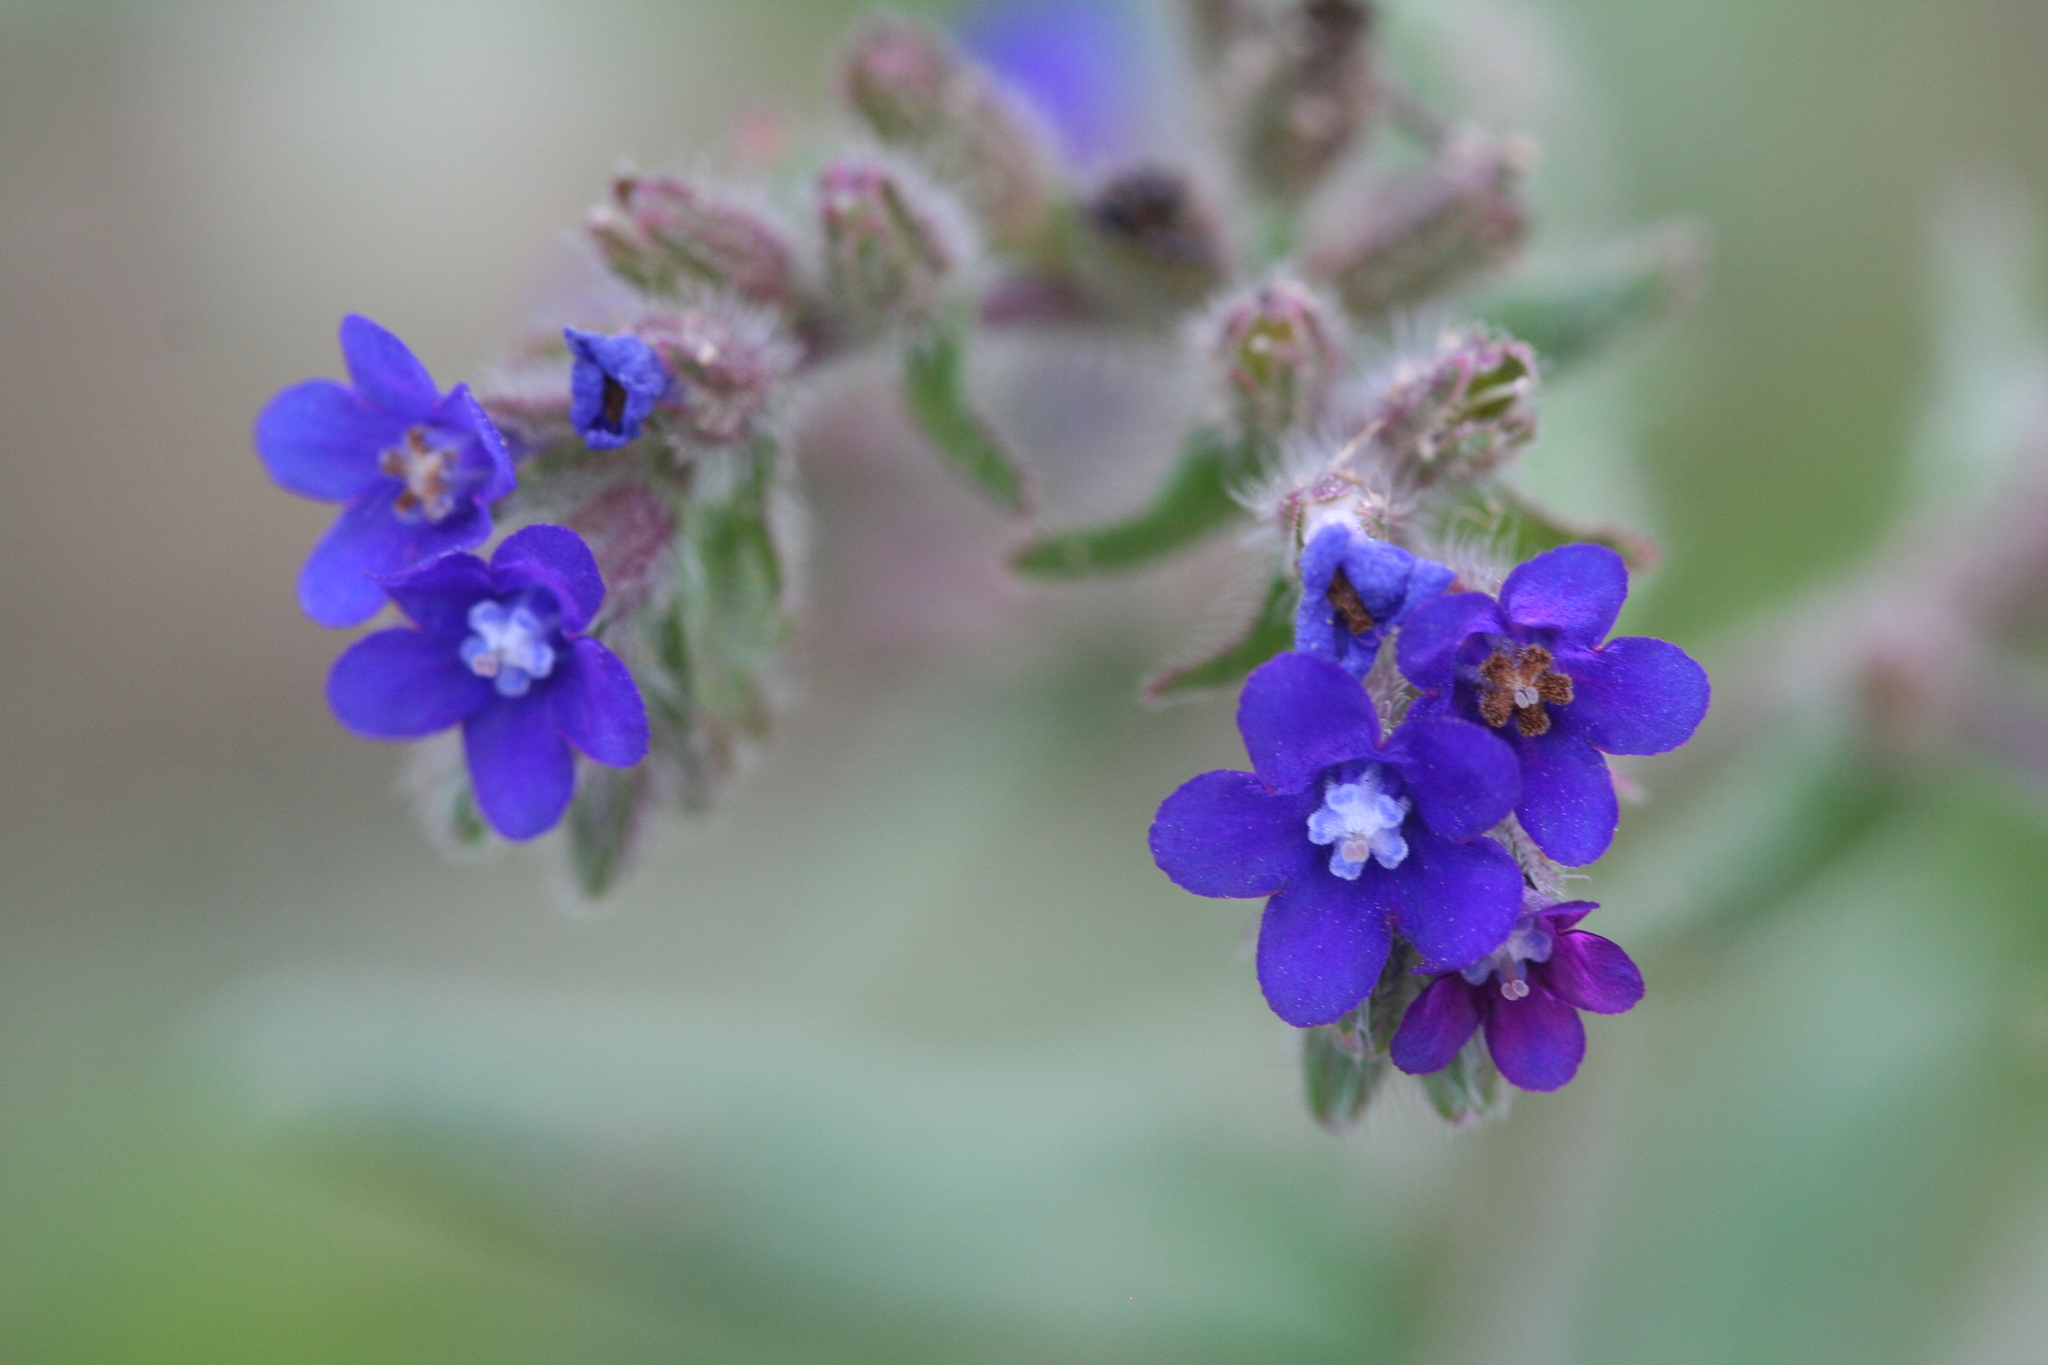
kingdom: Plantae
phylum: Tracheophyta
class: Magnoliopsida
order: Boraginales
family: Boraginaceae
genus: Anchusa
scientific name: Anchusa officinalis
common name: Alkanet
